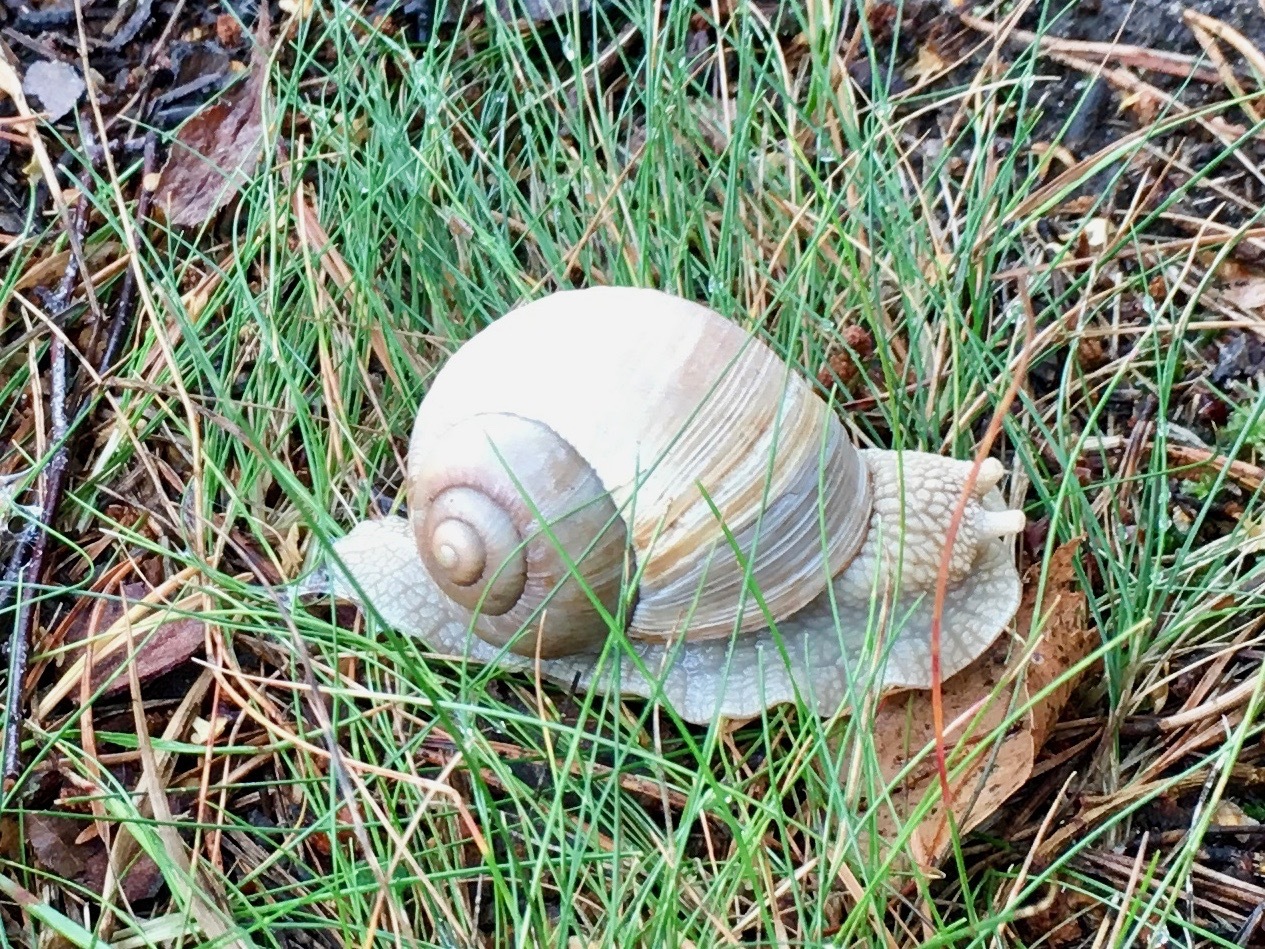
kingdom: Animalia
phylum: Mollusca
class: Gastropoda
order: Stylommatophora
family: Helicidae
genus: Helix
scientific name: Helix pomatia
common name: Roman snail
